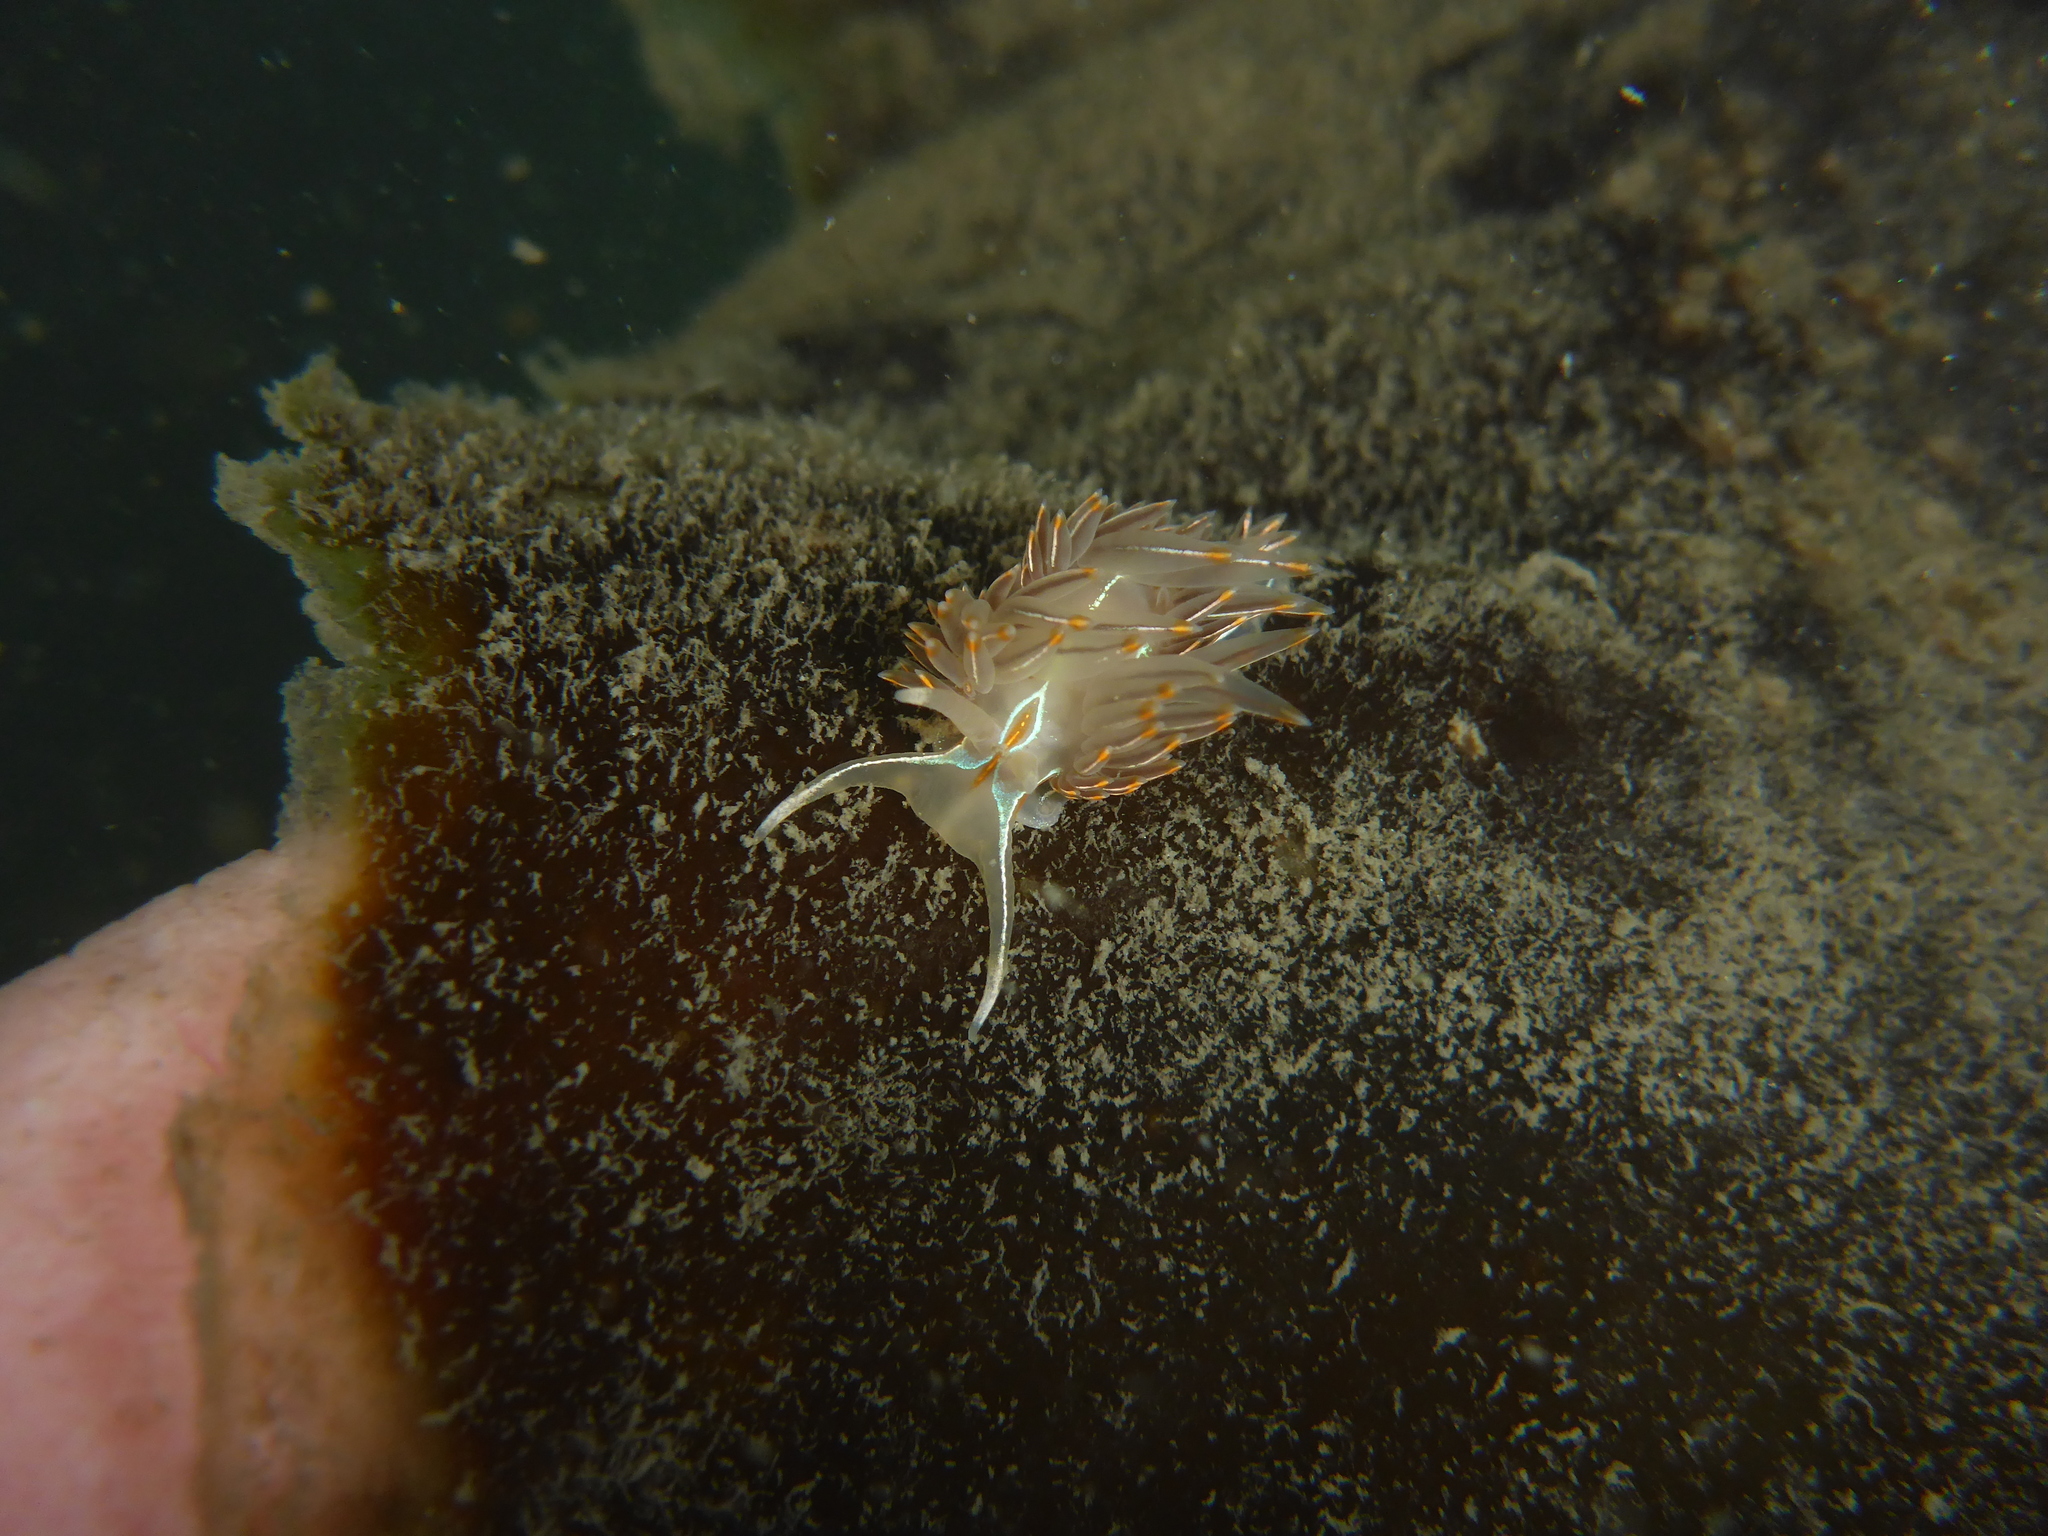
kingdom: Animalia
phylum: Mollusca
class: Gastropoda
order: Nudibranchia
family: Myrrhinidae
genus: Hermissenda
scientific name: Hermissenda crassicornis
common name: Hermissenda
